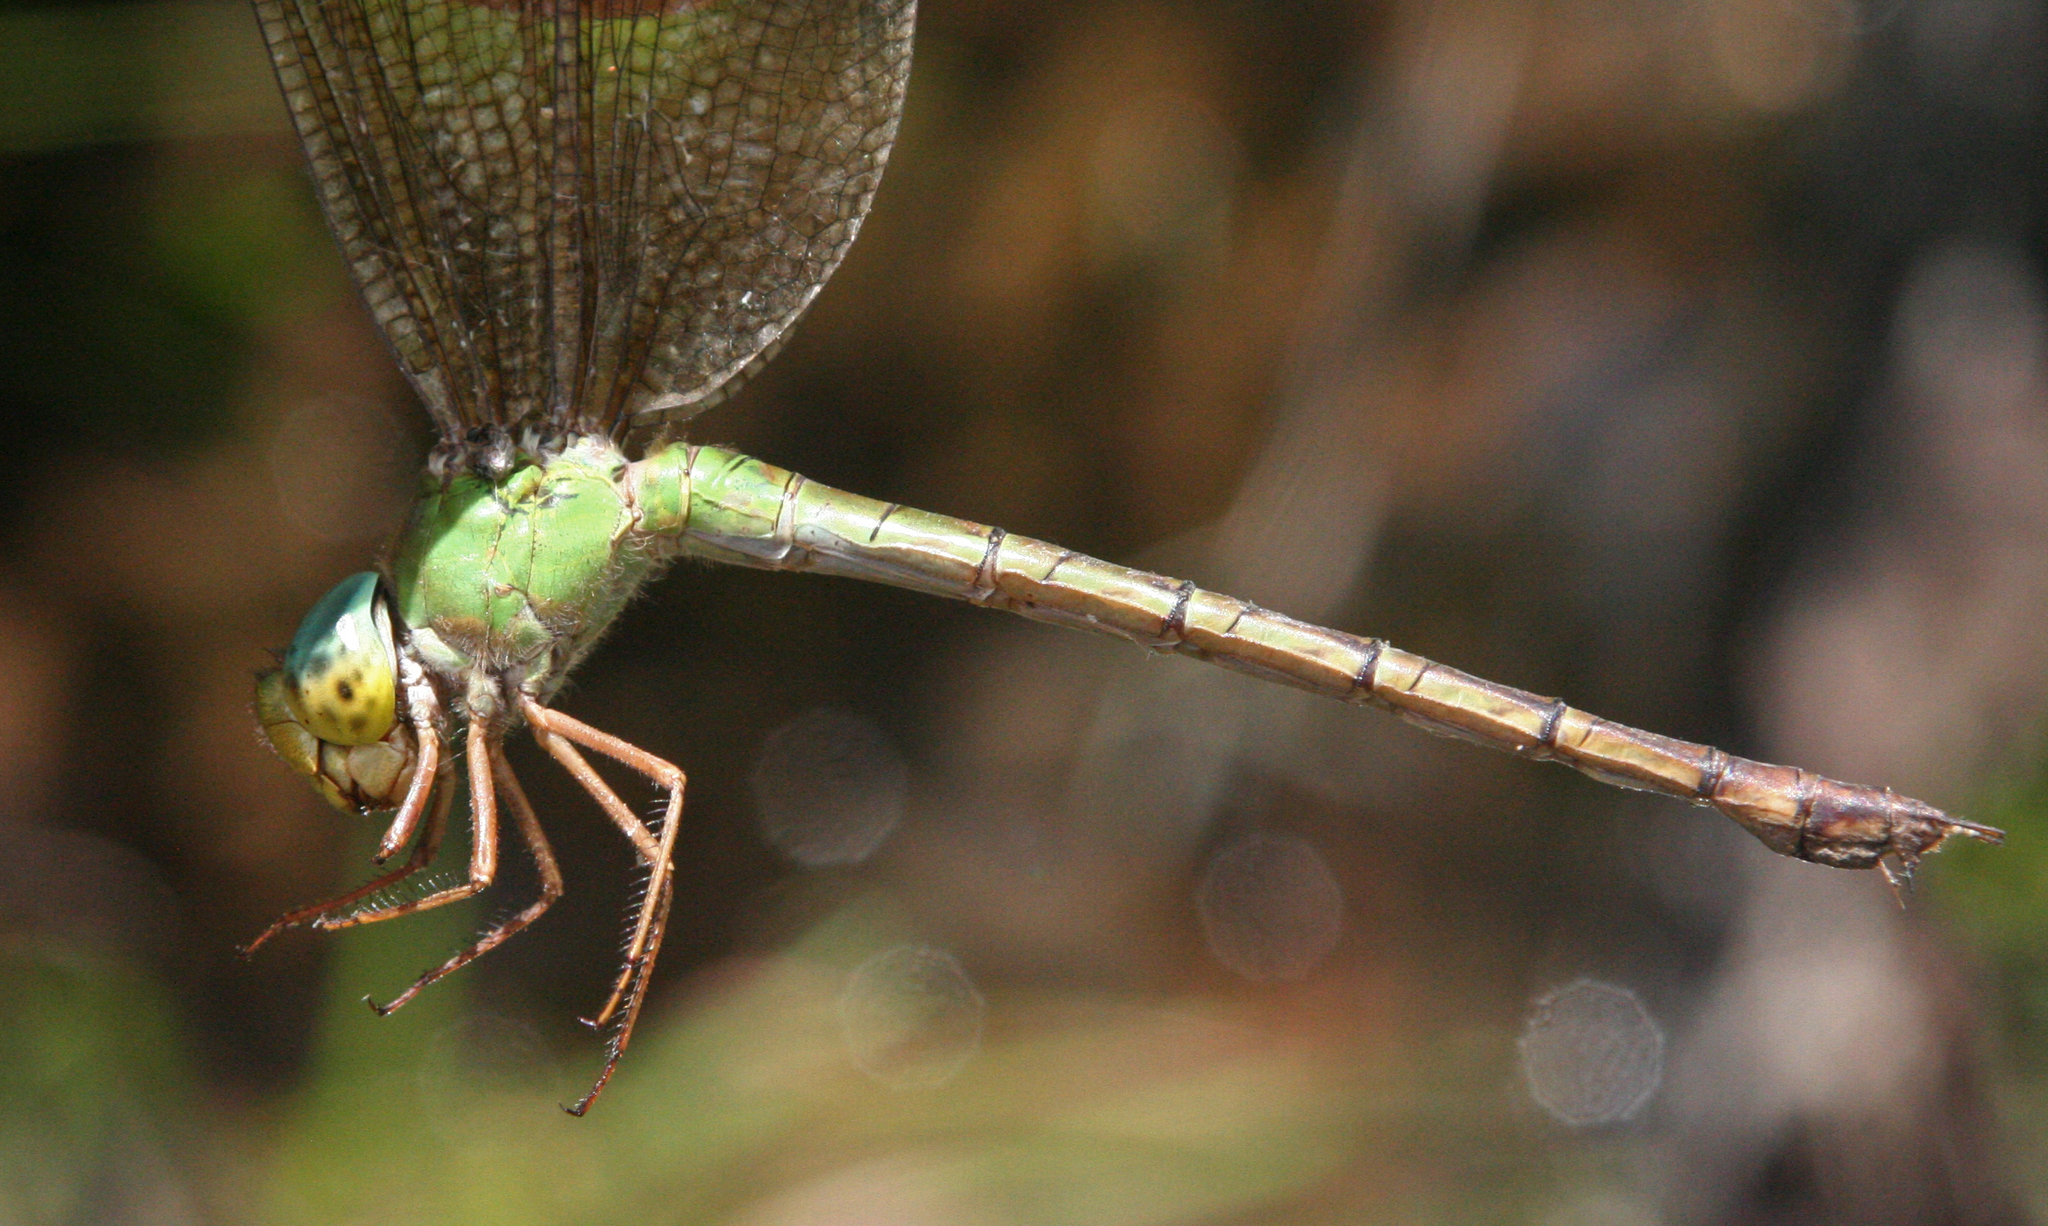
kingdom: Animalia
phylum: Arthropoda
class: Insecta
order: Odonata
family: Aeshnidae
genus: Gynacantha
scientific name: Gynacantha bayadera
